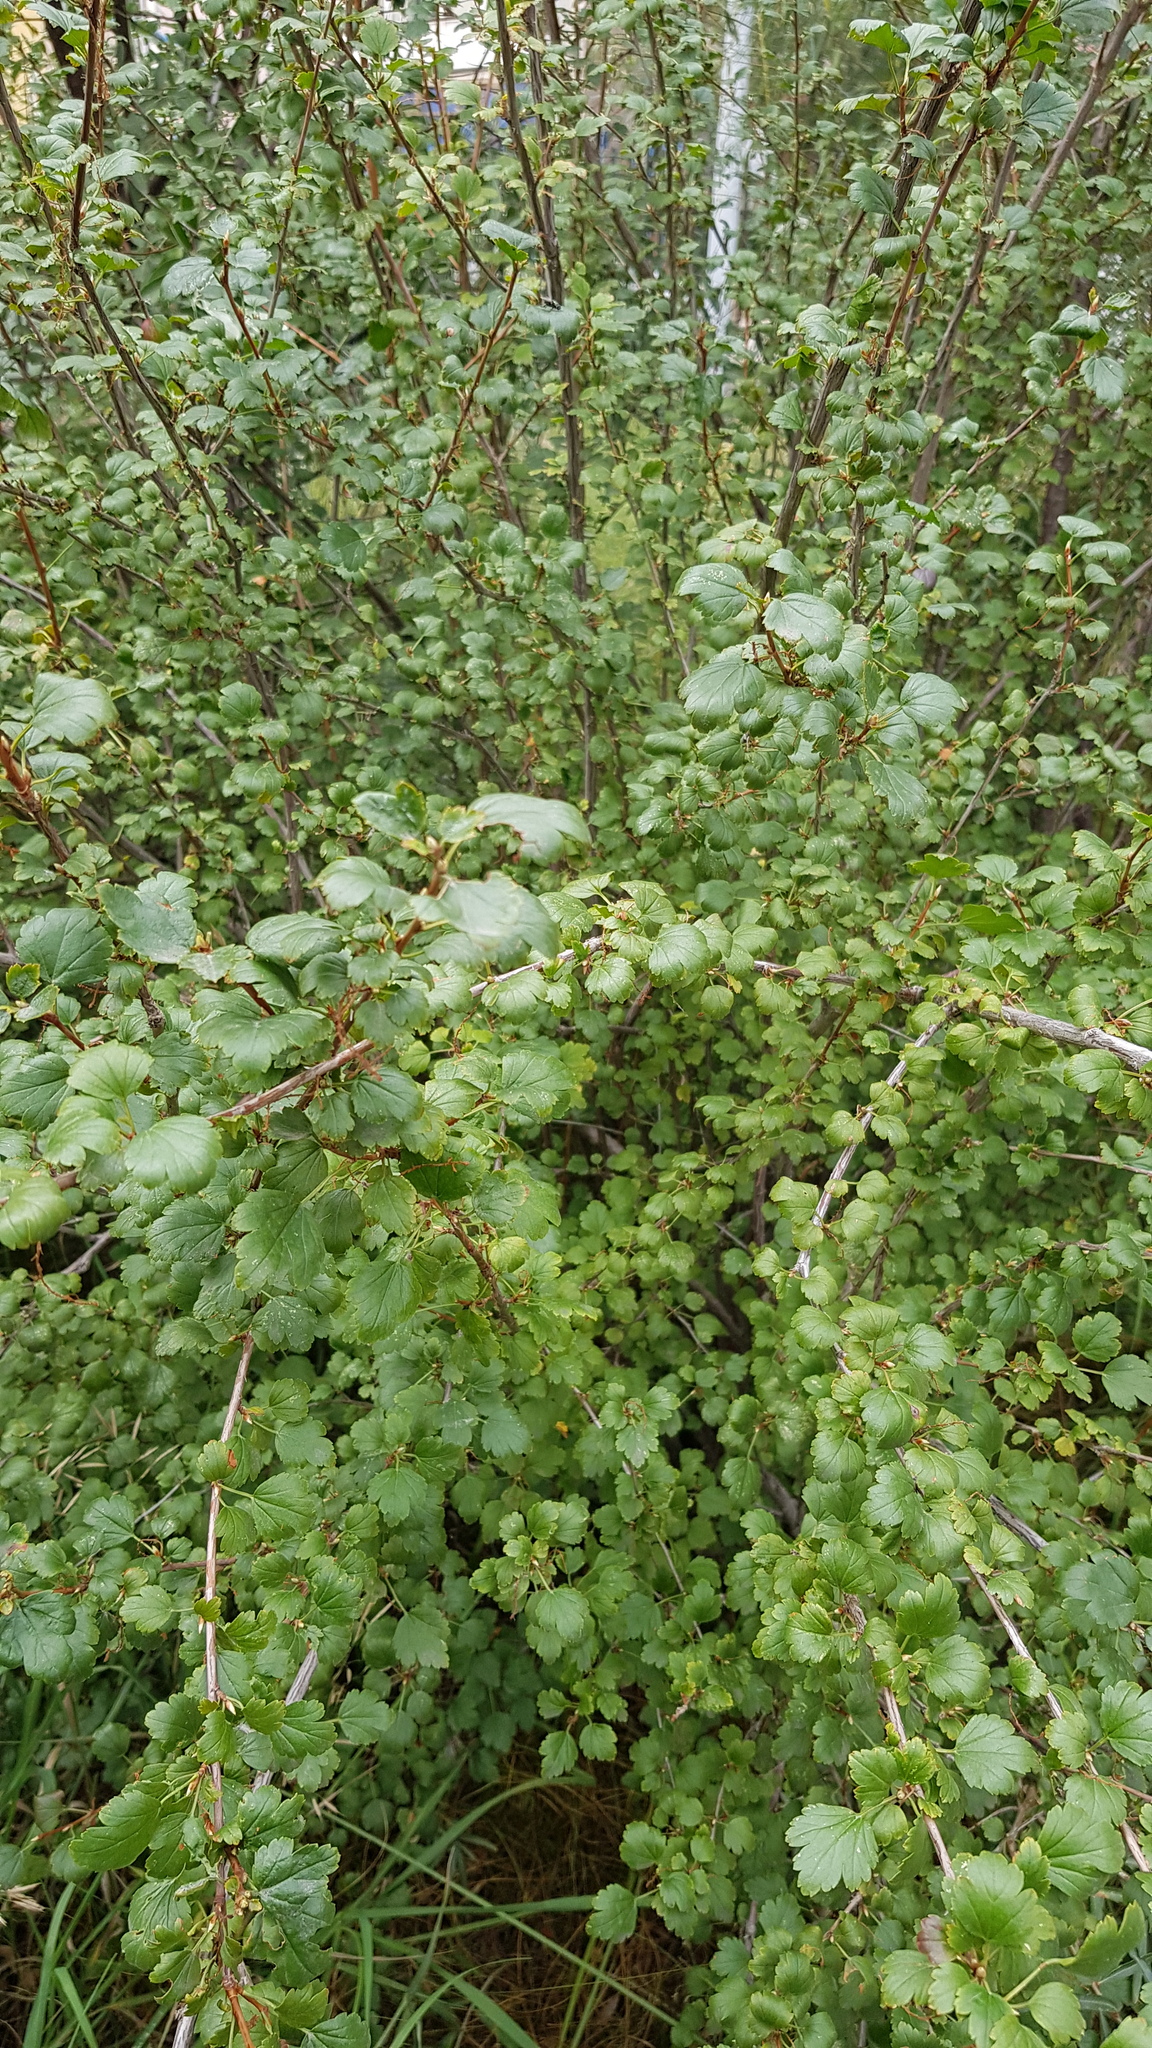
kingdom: Plantae
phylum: Tracheophyta
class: Magnoliopsida
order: Saxifragales
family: Grossulariaceae
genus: Ribes
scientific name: Ribes diacanthum
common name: Siberian currant
